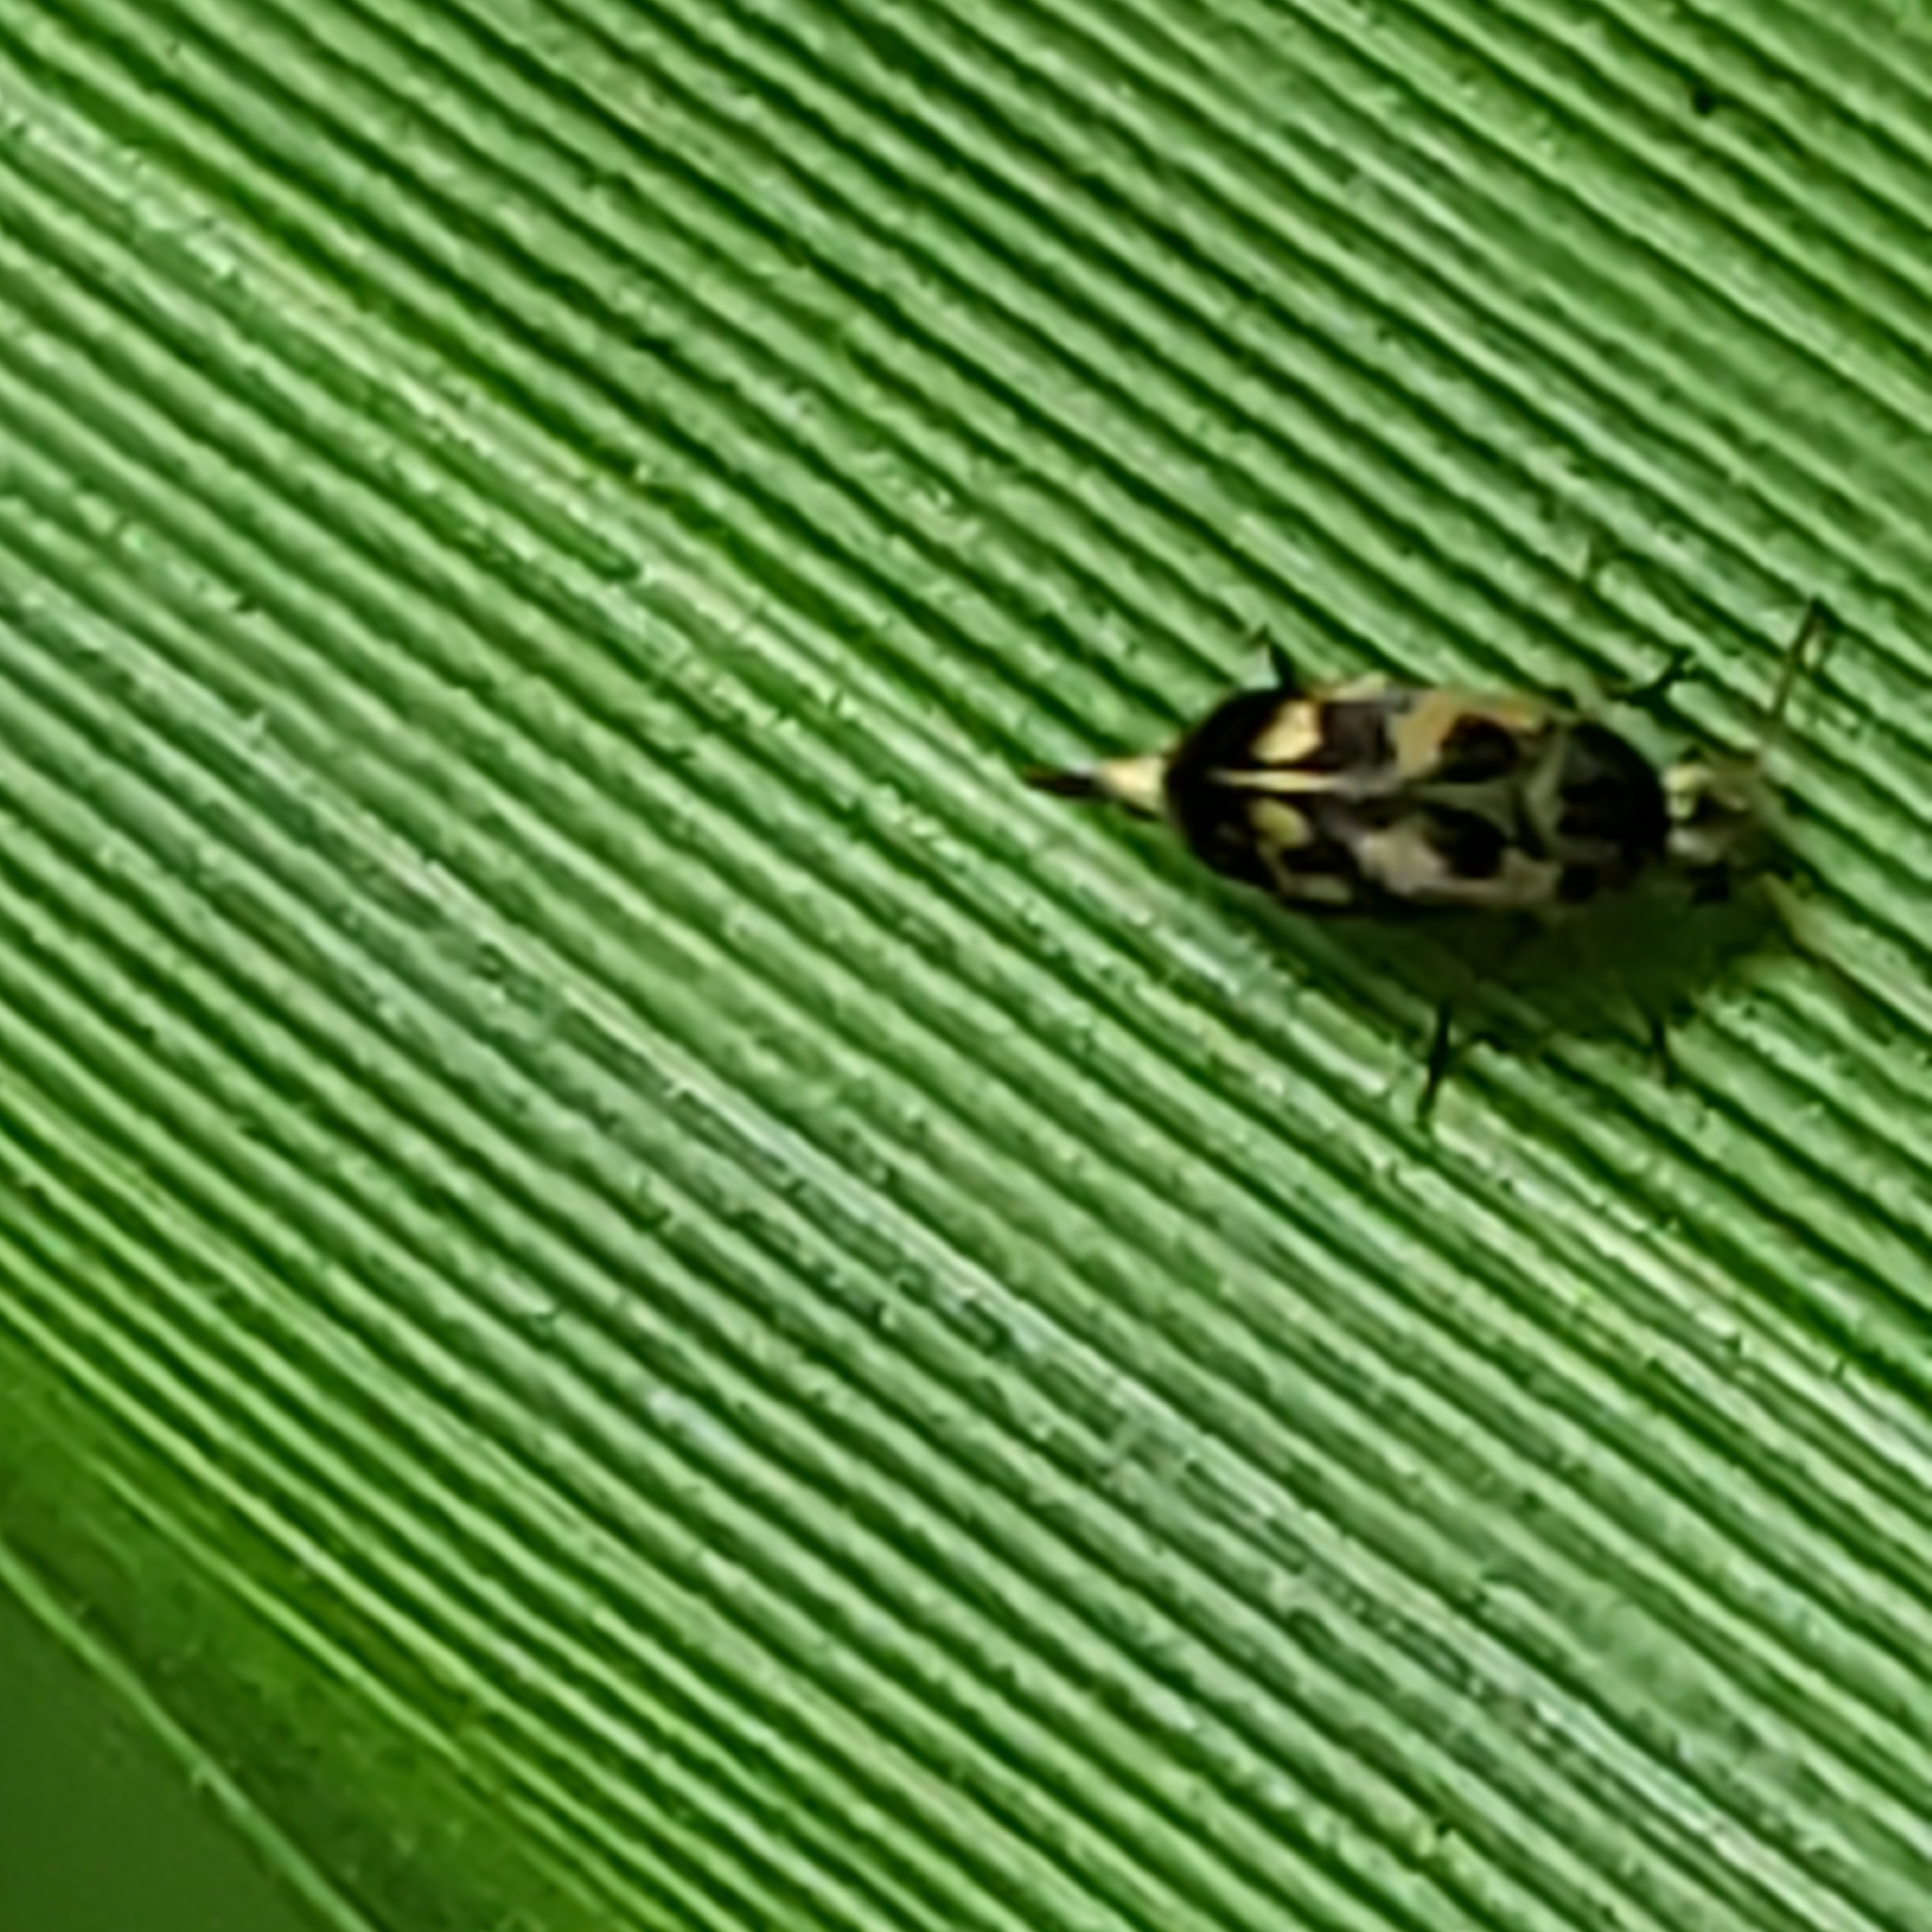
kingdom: Animalia
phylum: Arthropoda
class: Insecta
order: Coleoptera
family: Mordellidae
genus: Falsomordellistena
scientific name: Falsomordellistena pubescens
